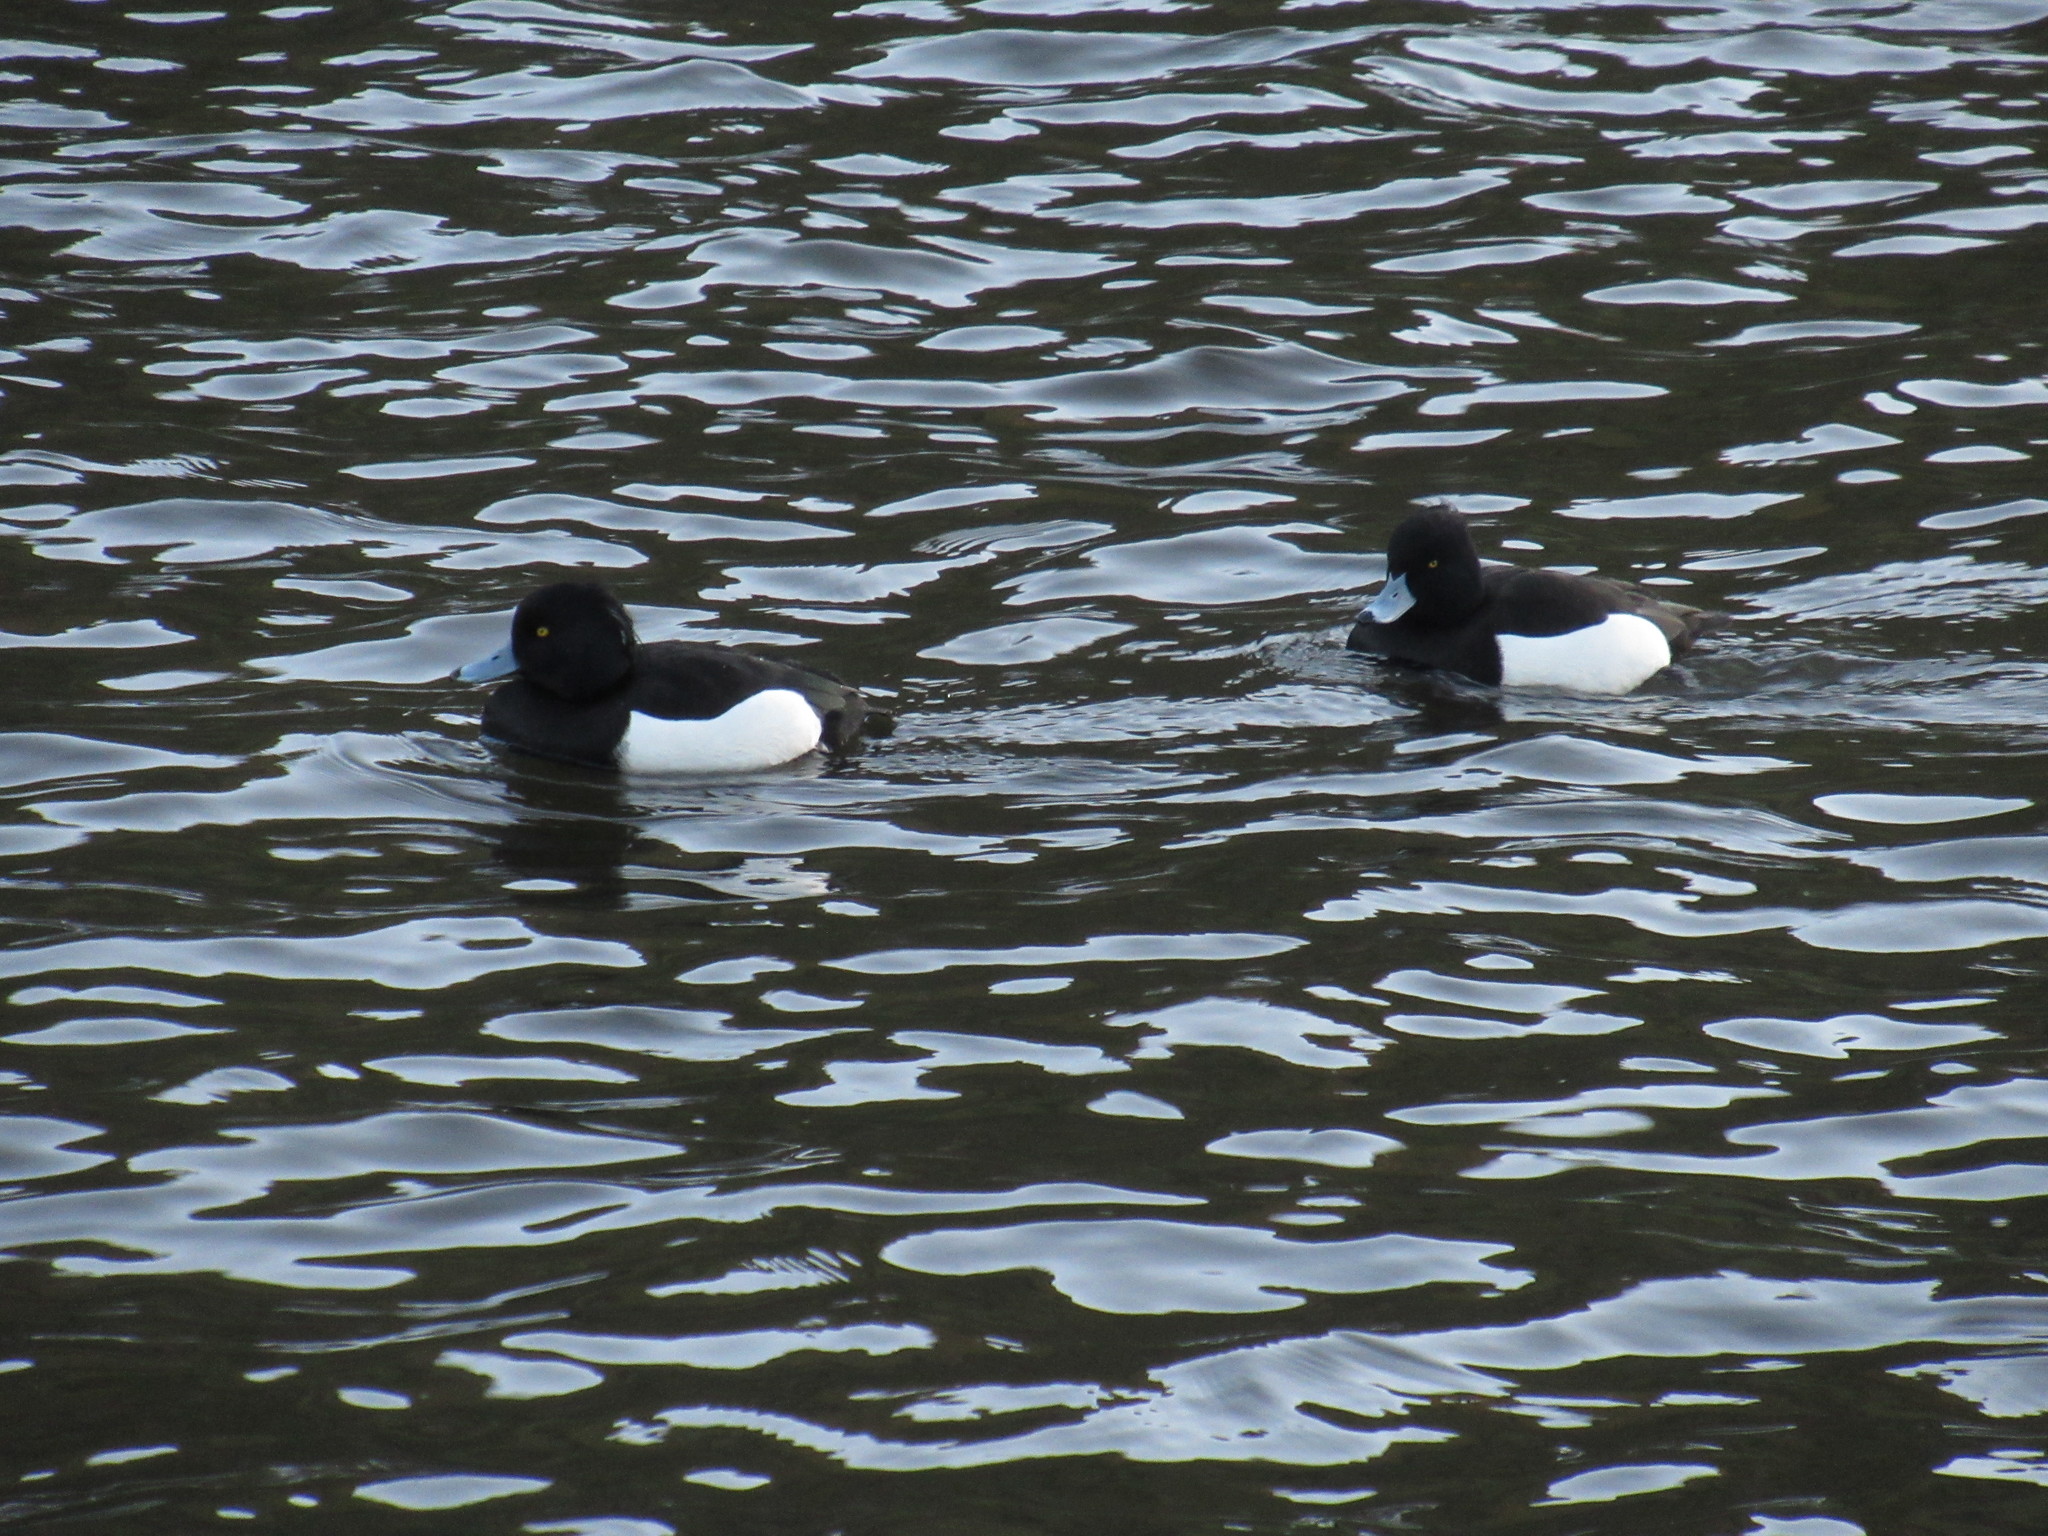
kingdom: Animalia
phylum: Chordata
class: Aves
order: Anseriformes
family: Anatidae
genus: Aythya
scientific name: Aythya fuligula
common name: Tufted duck
